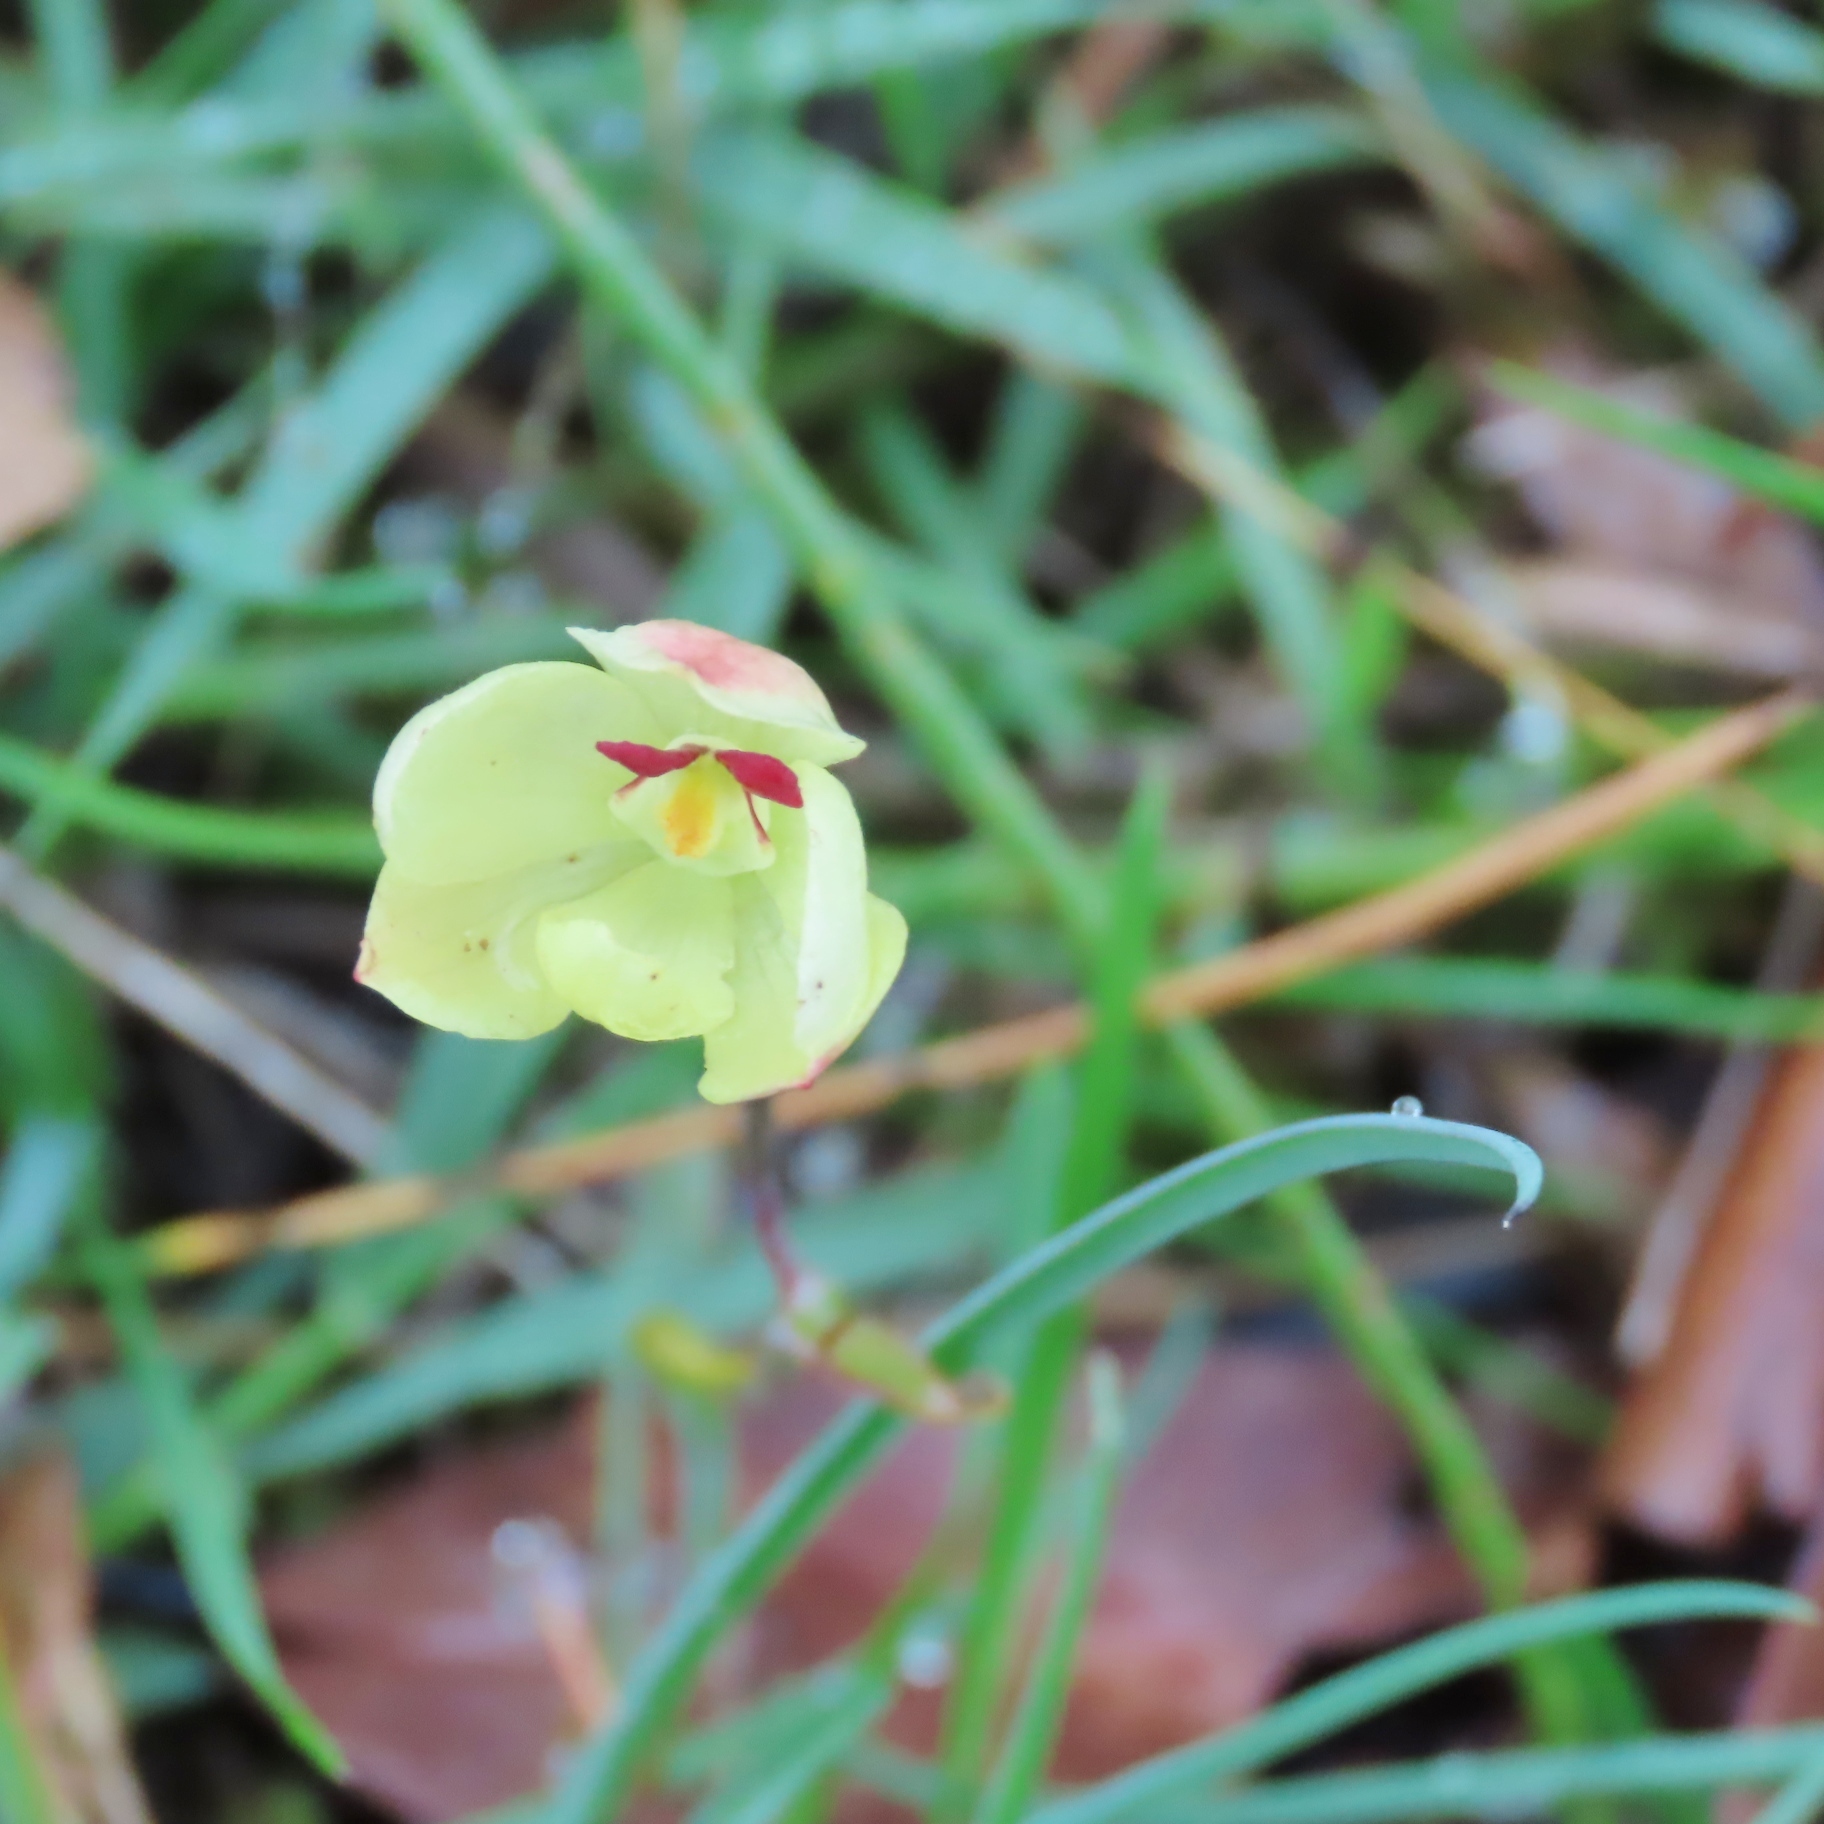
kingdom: Plantae
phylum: Tracheophyta
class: Liliopsida
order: Asparagales
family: Orchidaceae
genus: Thelymitra
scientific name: Thelymitra antennifera
